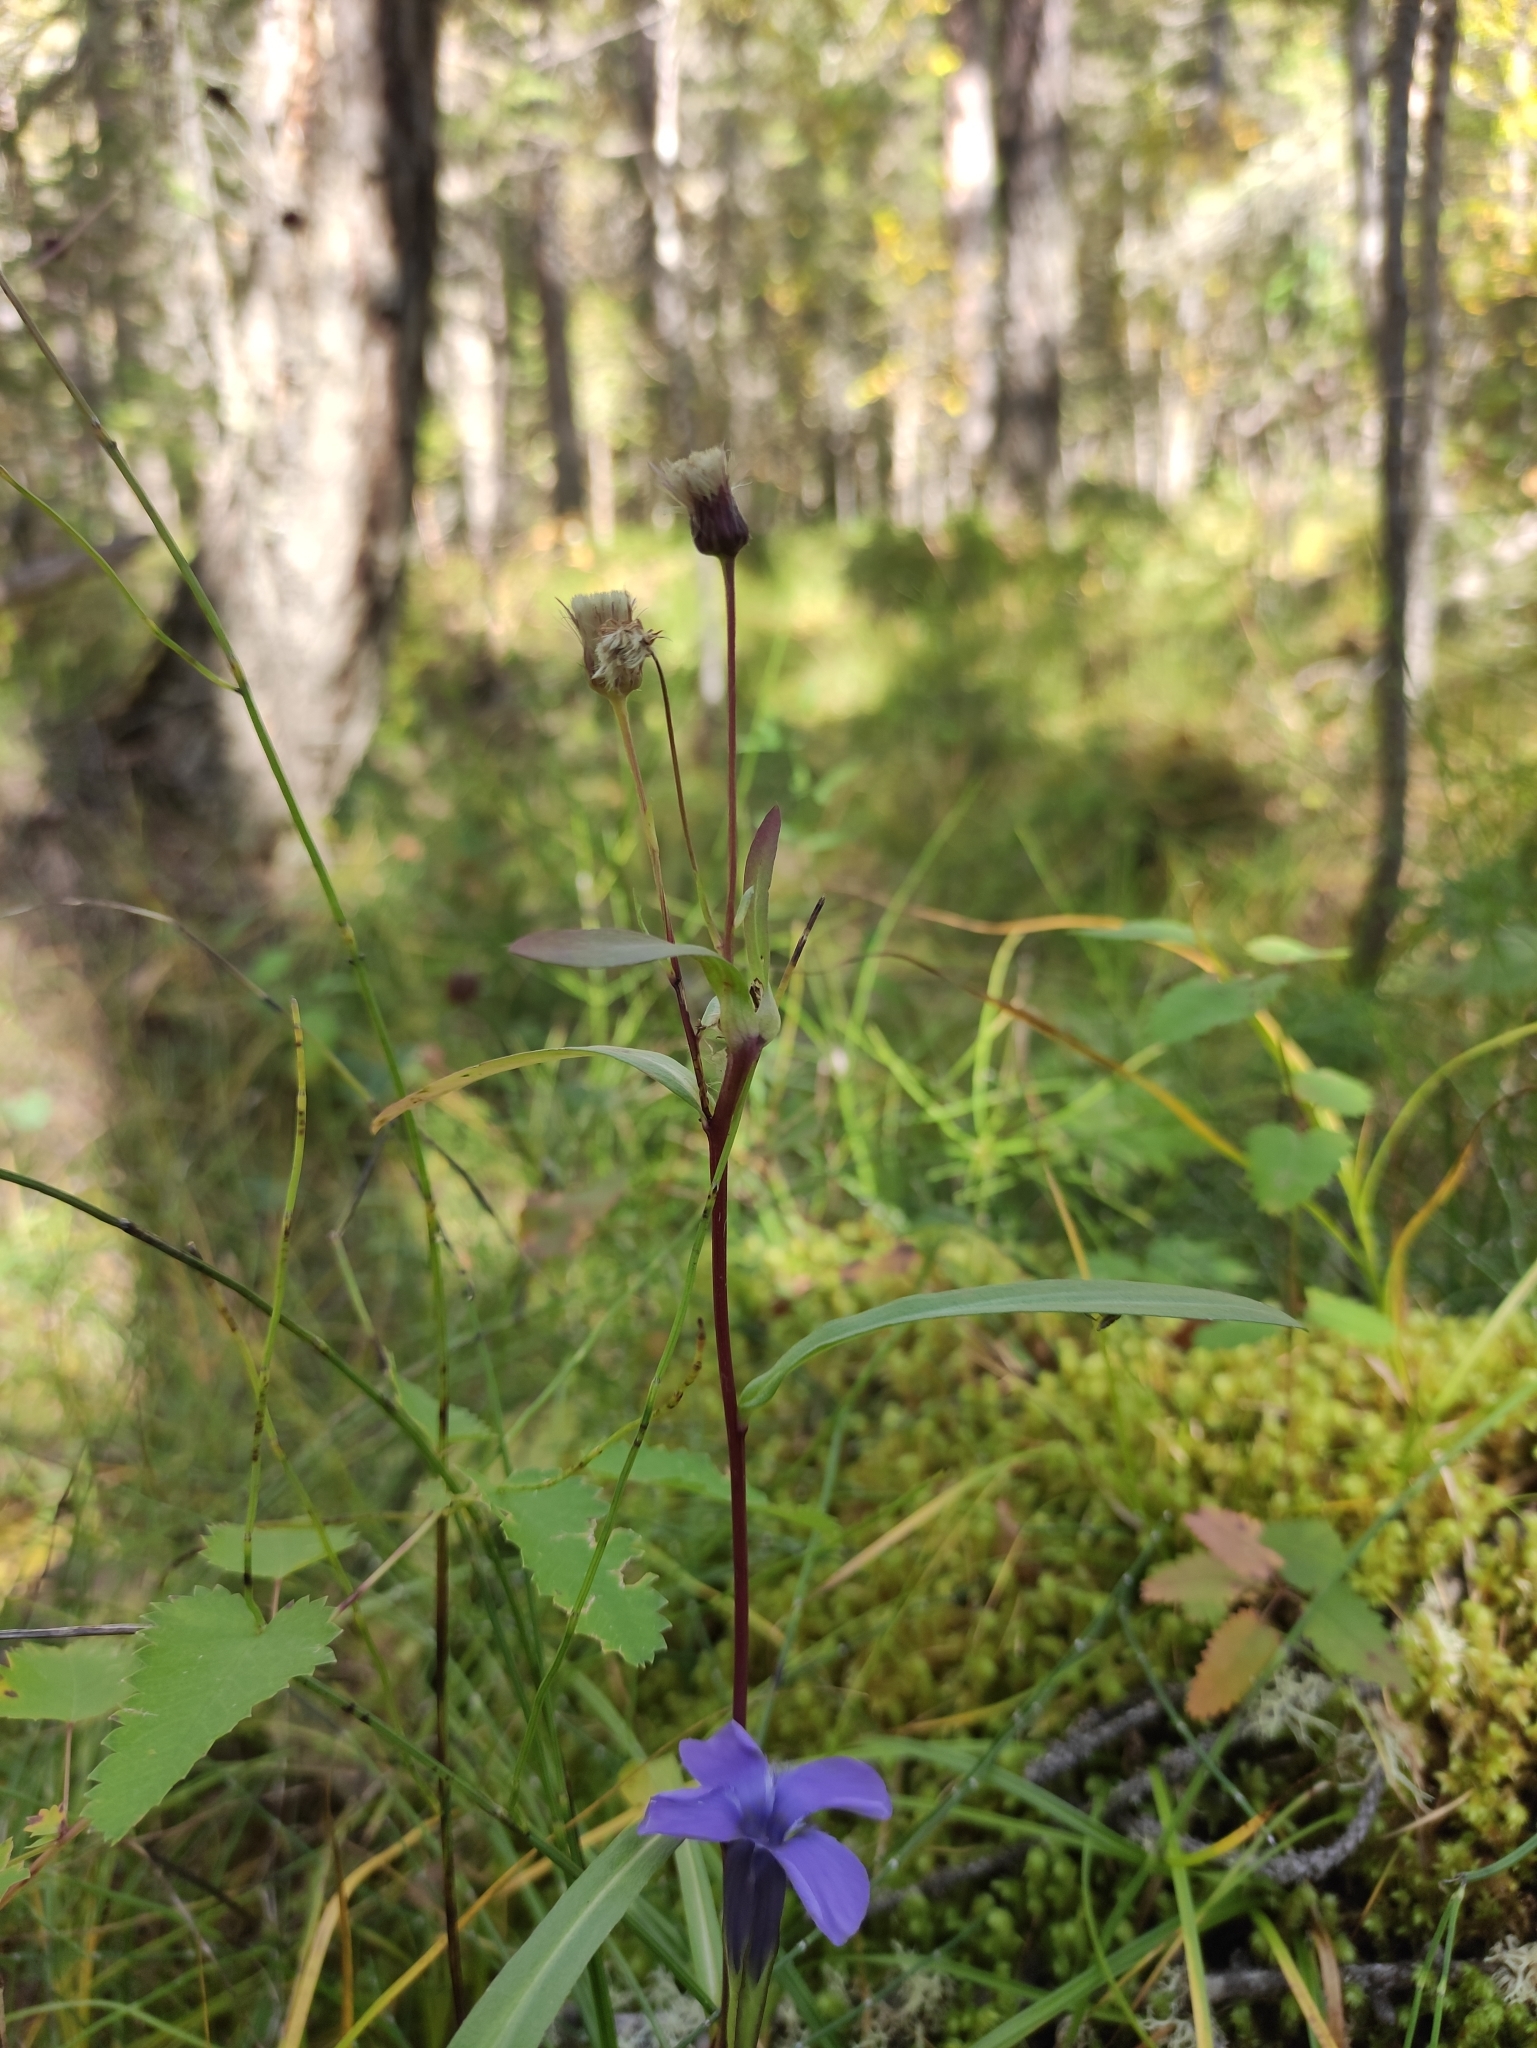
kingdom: Plantae
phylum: Tracheophyta
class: Magnoliopsida
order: Asterales
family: Asteraceae
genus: Erigeron
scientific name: Erigeron acris
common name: Blue fleabane
